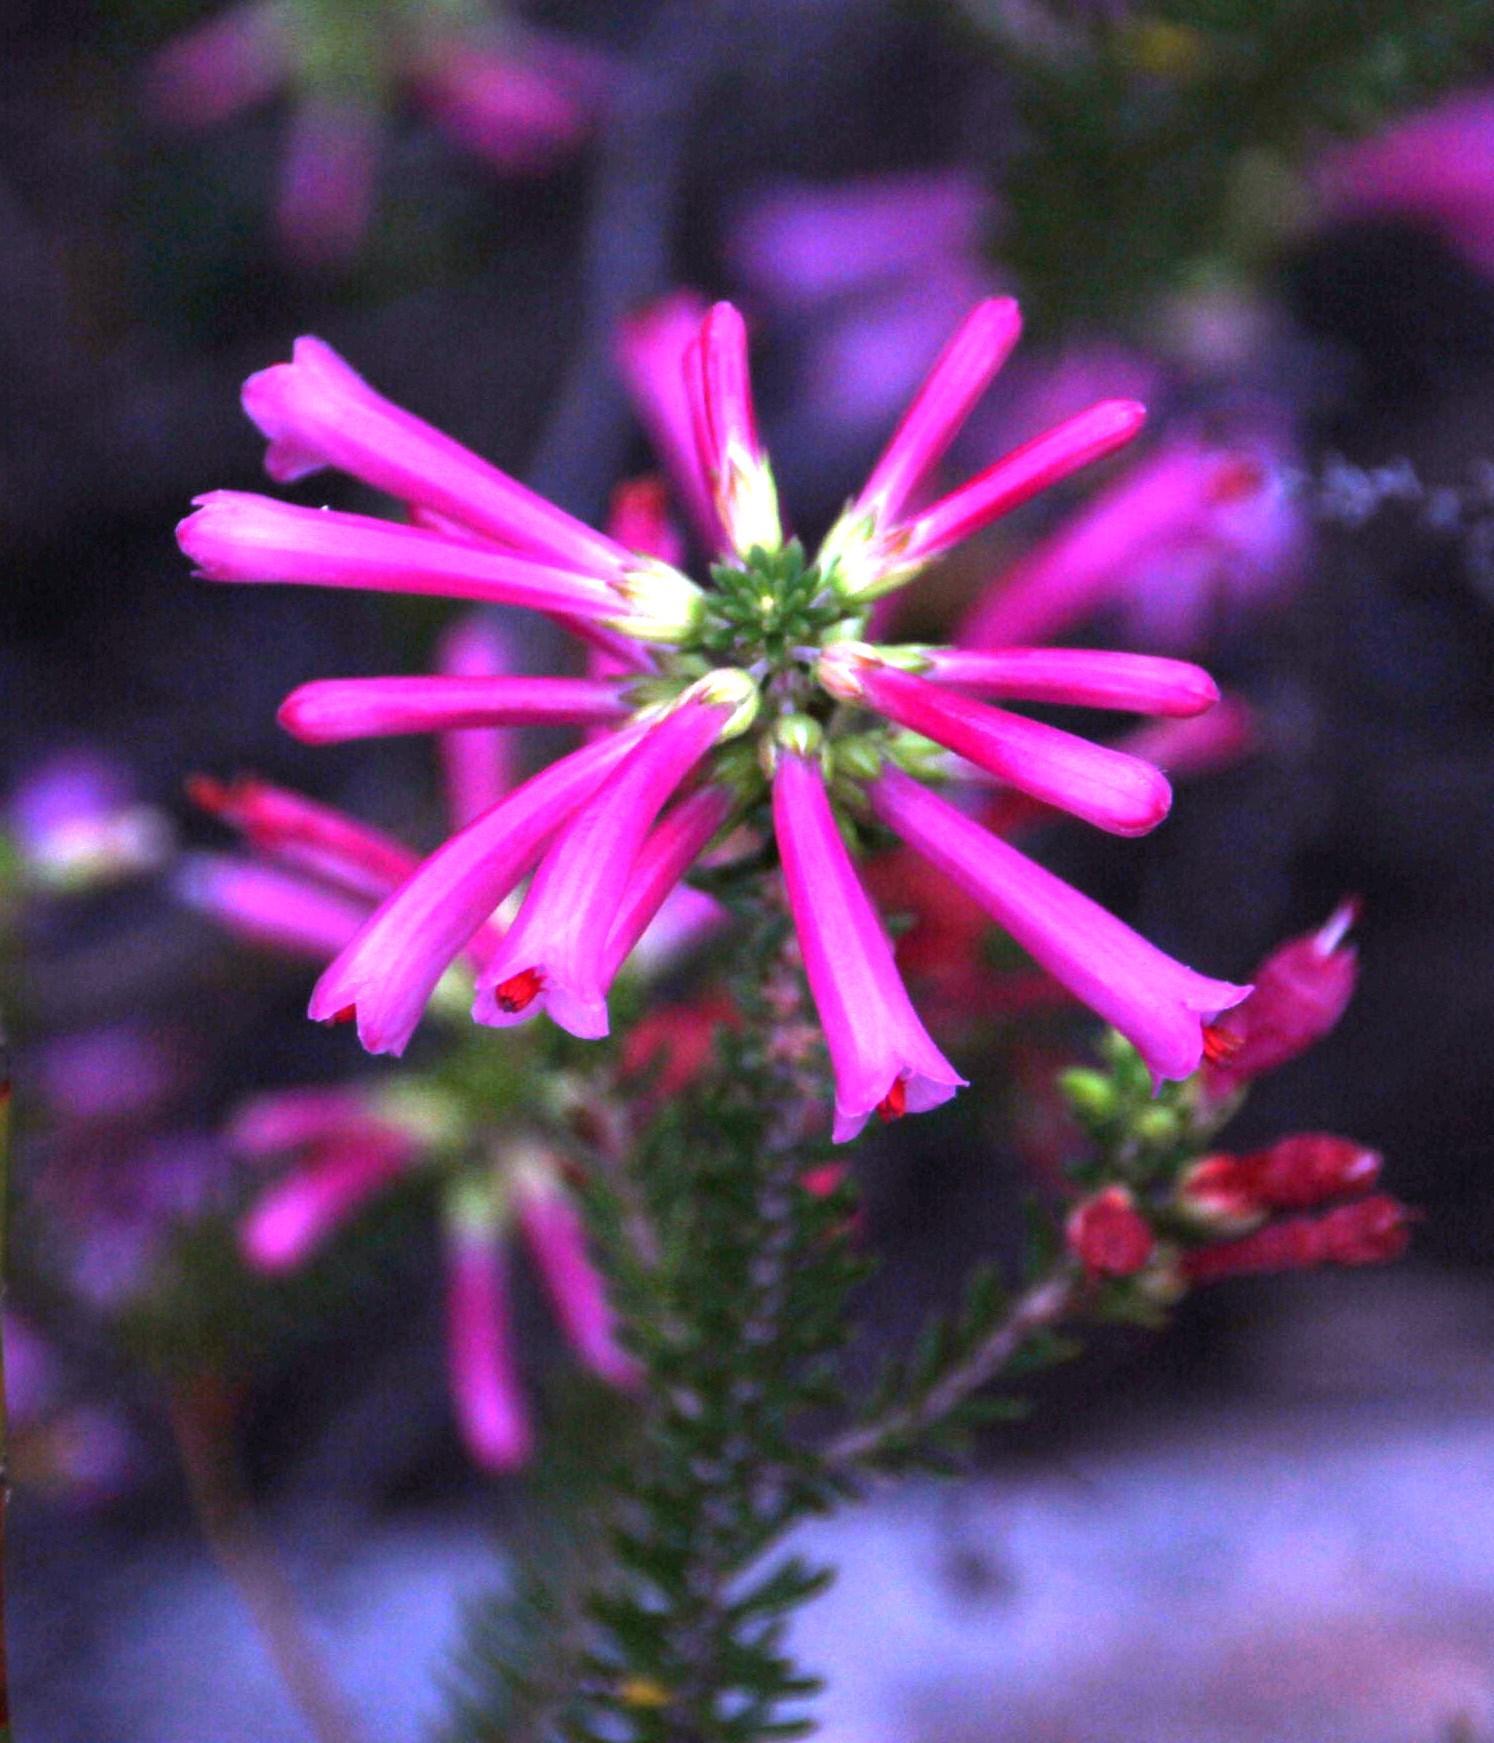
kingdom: Plantae
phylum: Tracheophyta
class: Magnoliopsida
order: Ericales
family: Ericaceae
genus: Erica
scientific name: Erica abietina
